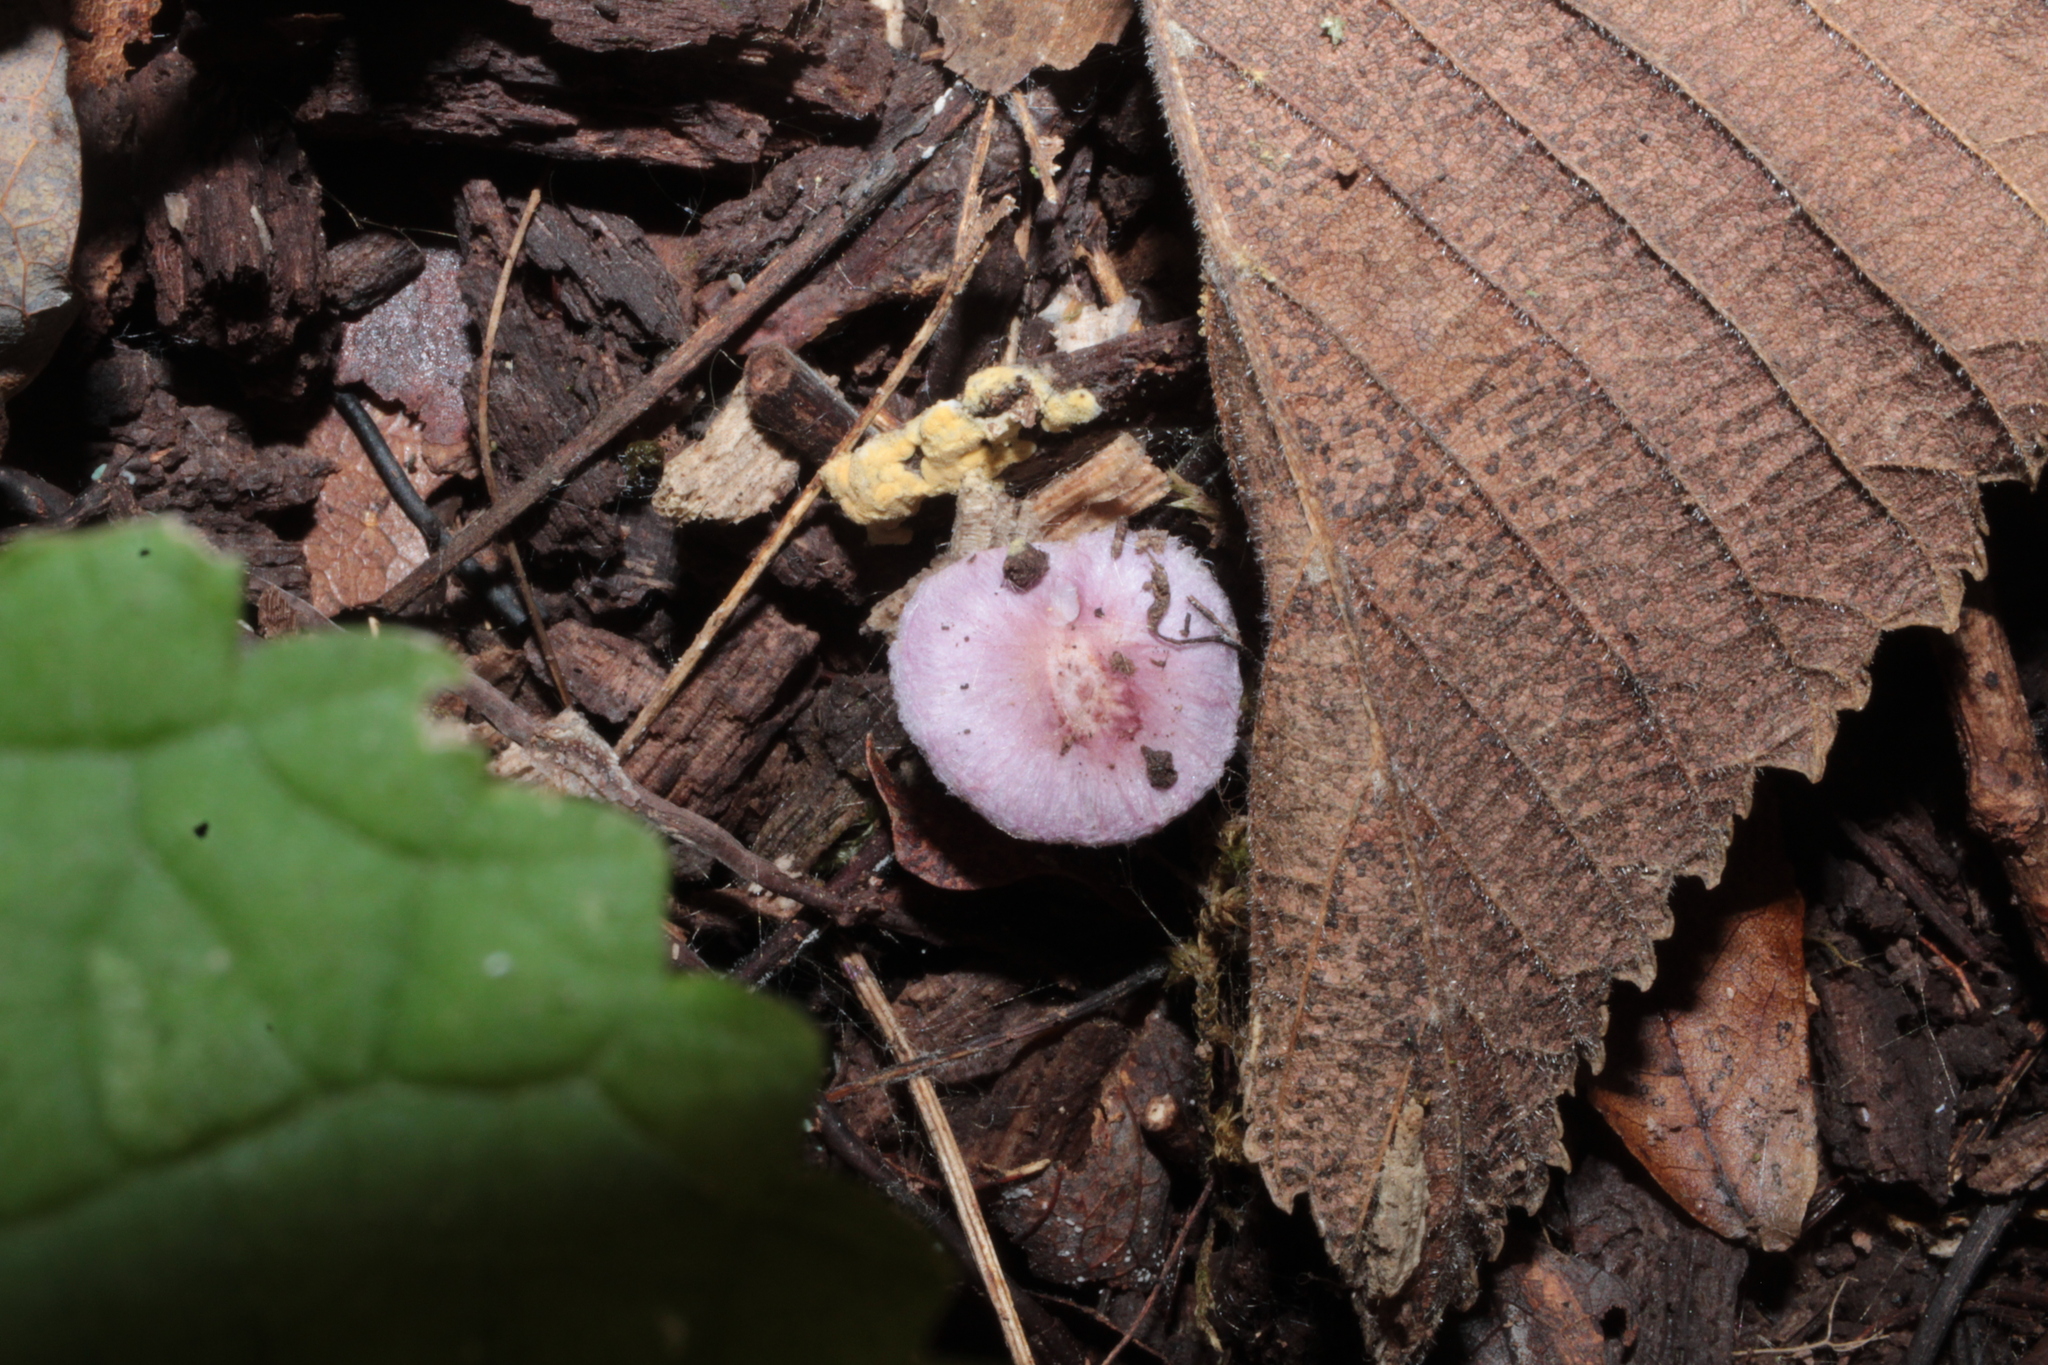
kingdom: Fungi
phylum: Basidiomycota
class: Agaricomycetes
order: Agaricales
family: Inocybaceae
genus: Inocybe
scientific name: Inocybe geophylla
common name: White fibrecap
